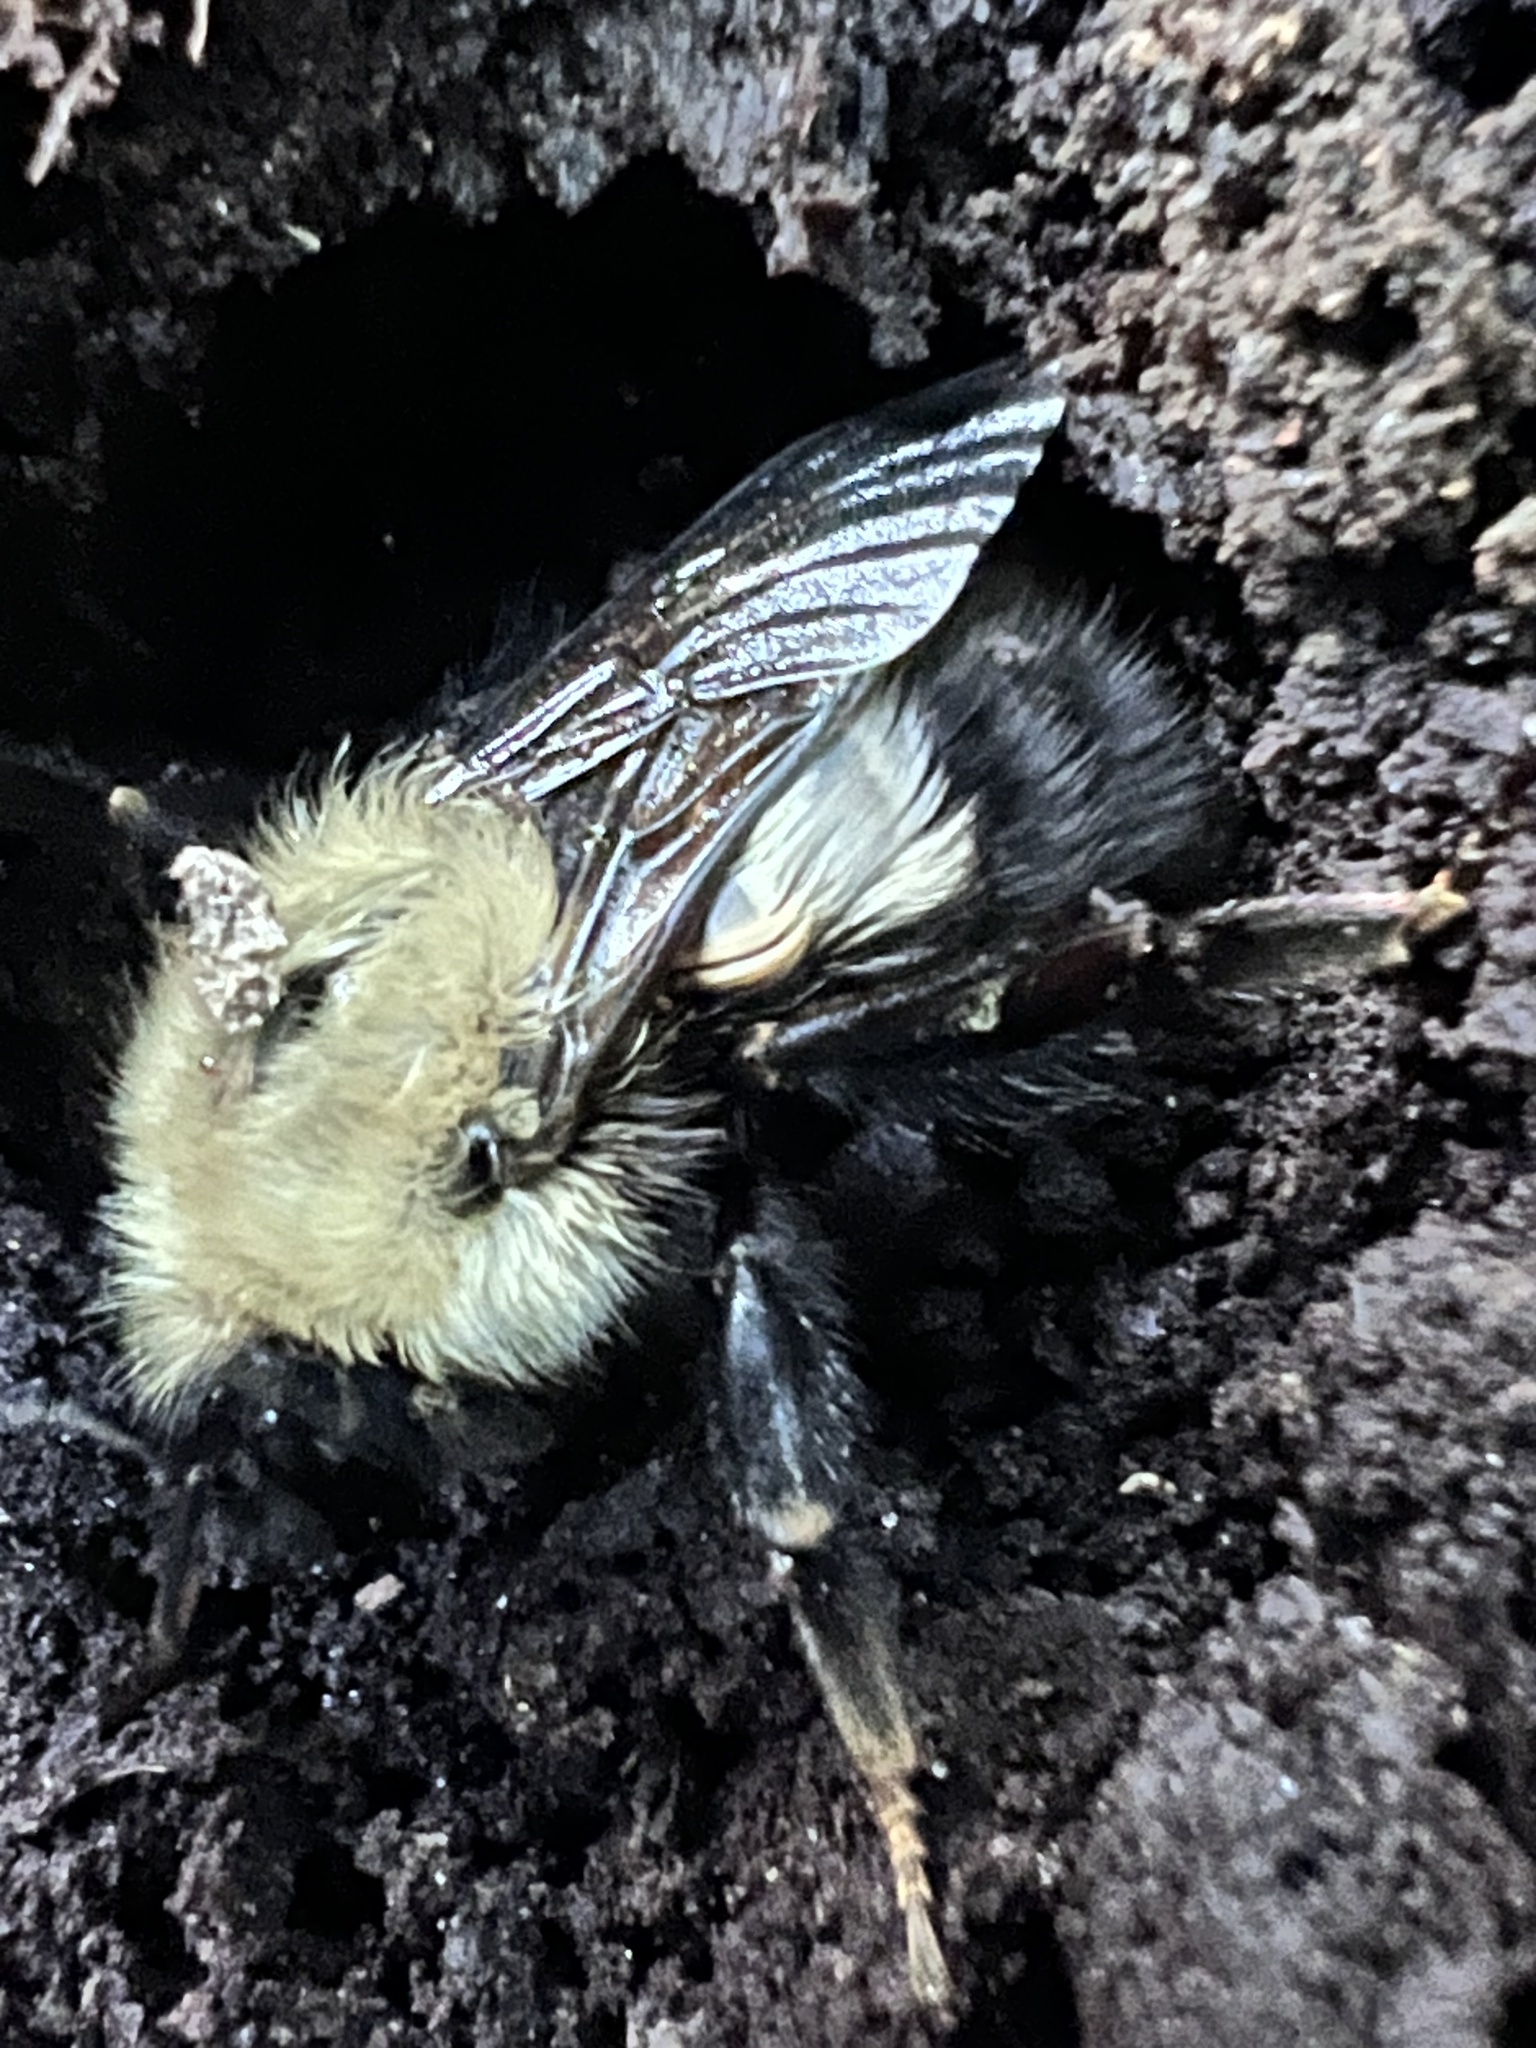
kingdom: Animalia
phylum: Arthropoda
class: Insecta
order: Hymenoptera
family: Apidae
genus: Bombus
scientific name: Bombus perplexus
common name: Confusing bumble bee
